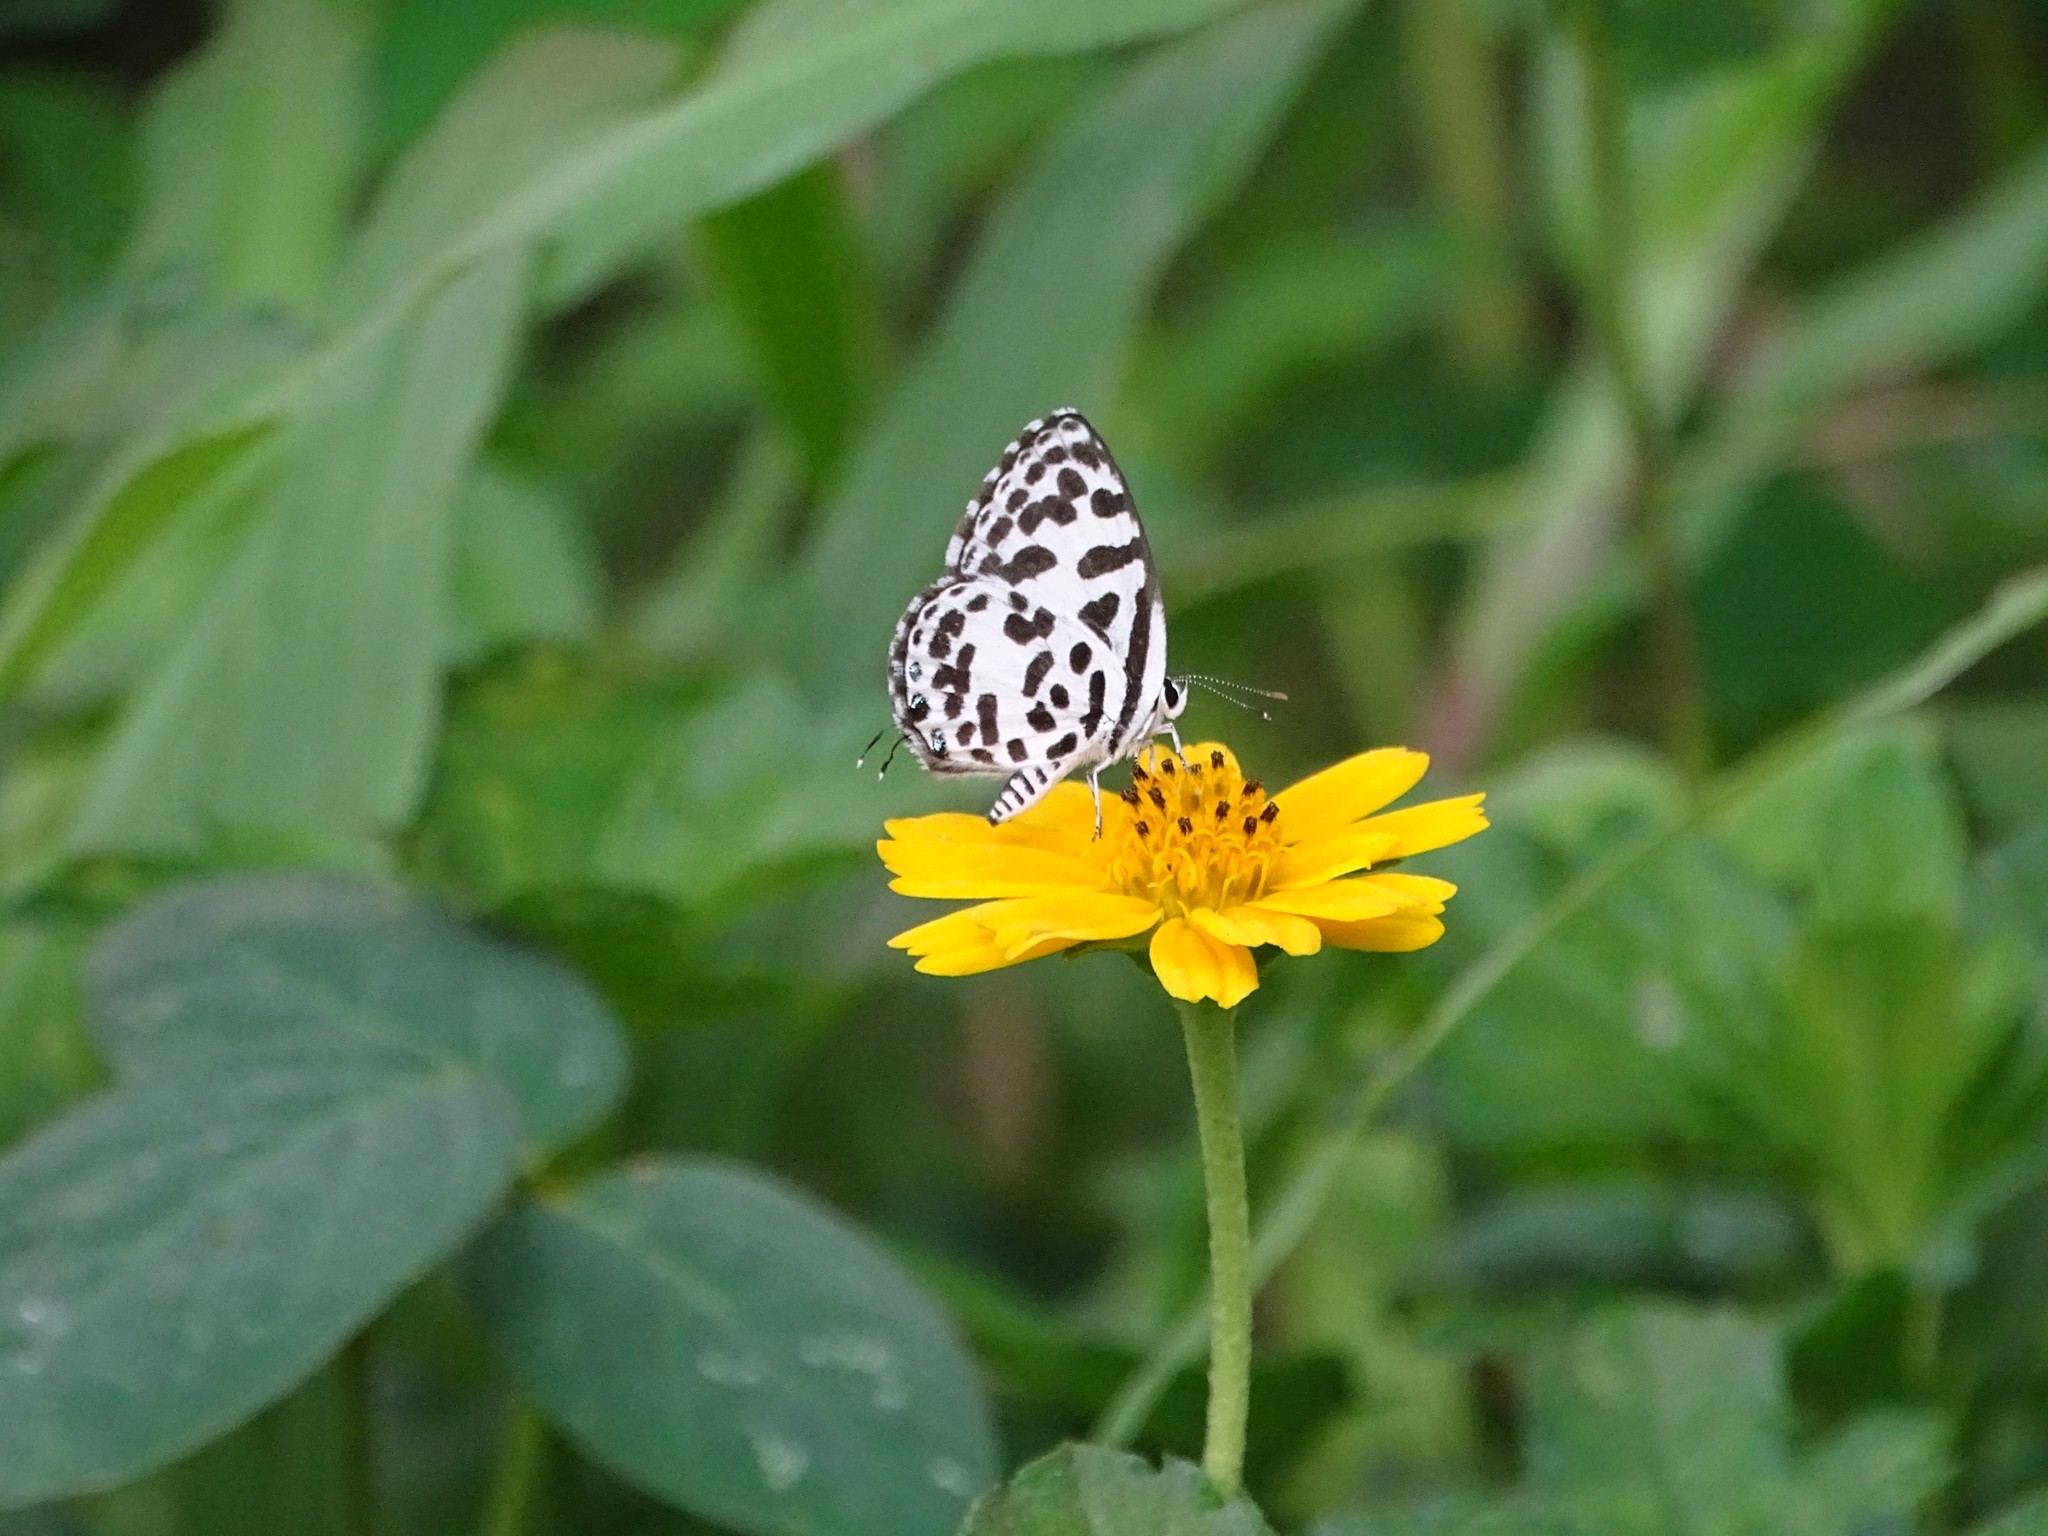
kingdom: Animalia
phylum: Arthropoda
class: Insecta
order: Lepidoptera
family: Lycaenidae
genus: Castalius
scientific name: Castalius rosimon
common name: Common pierrot
